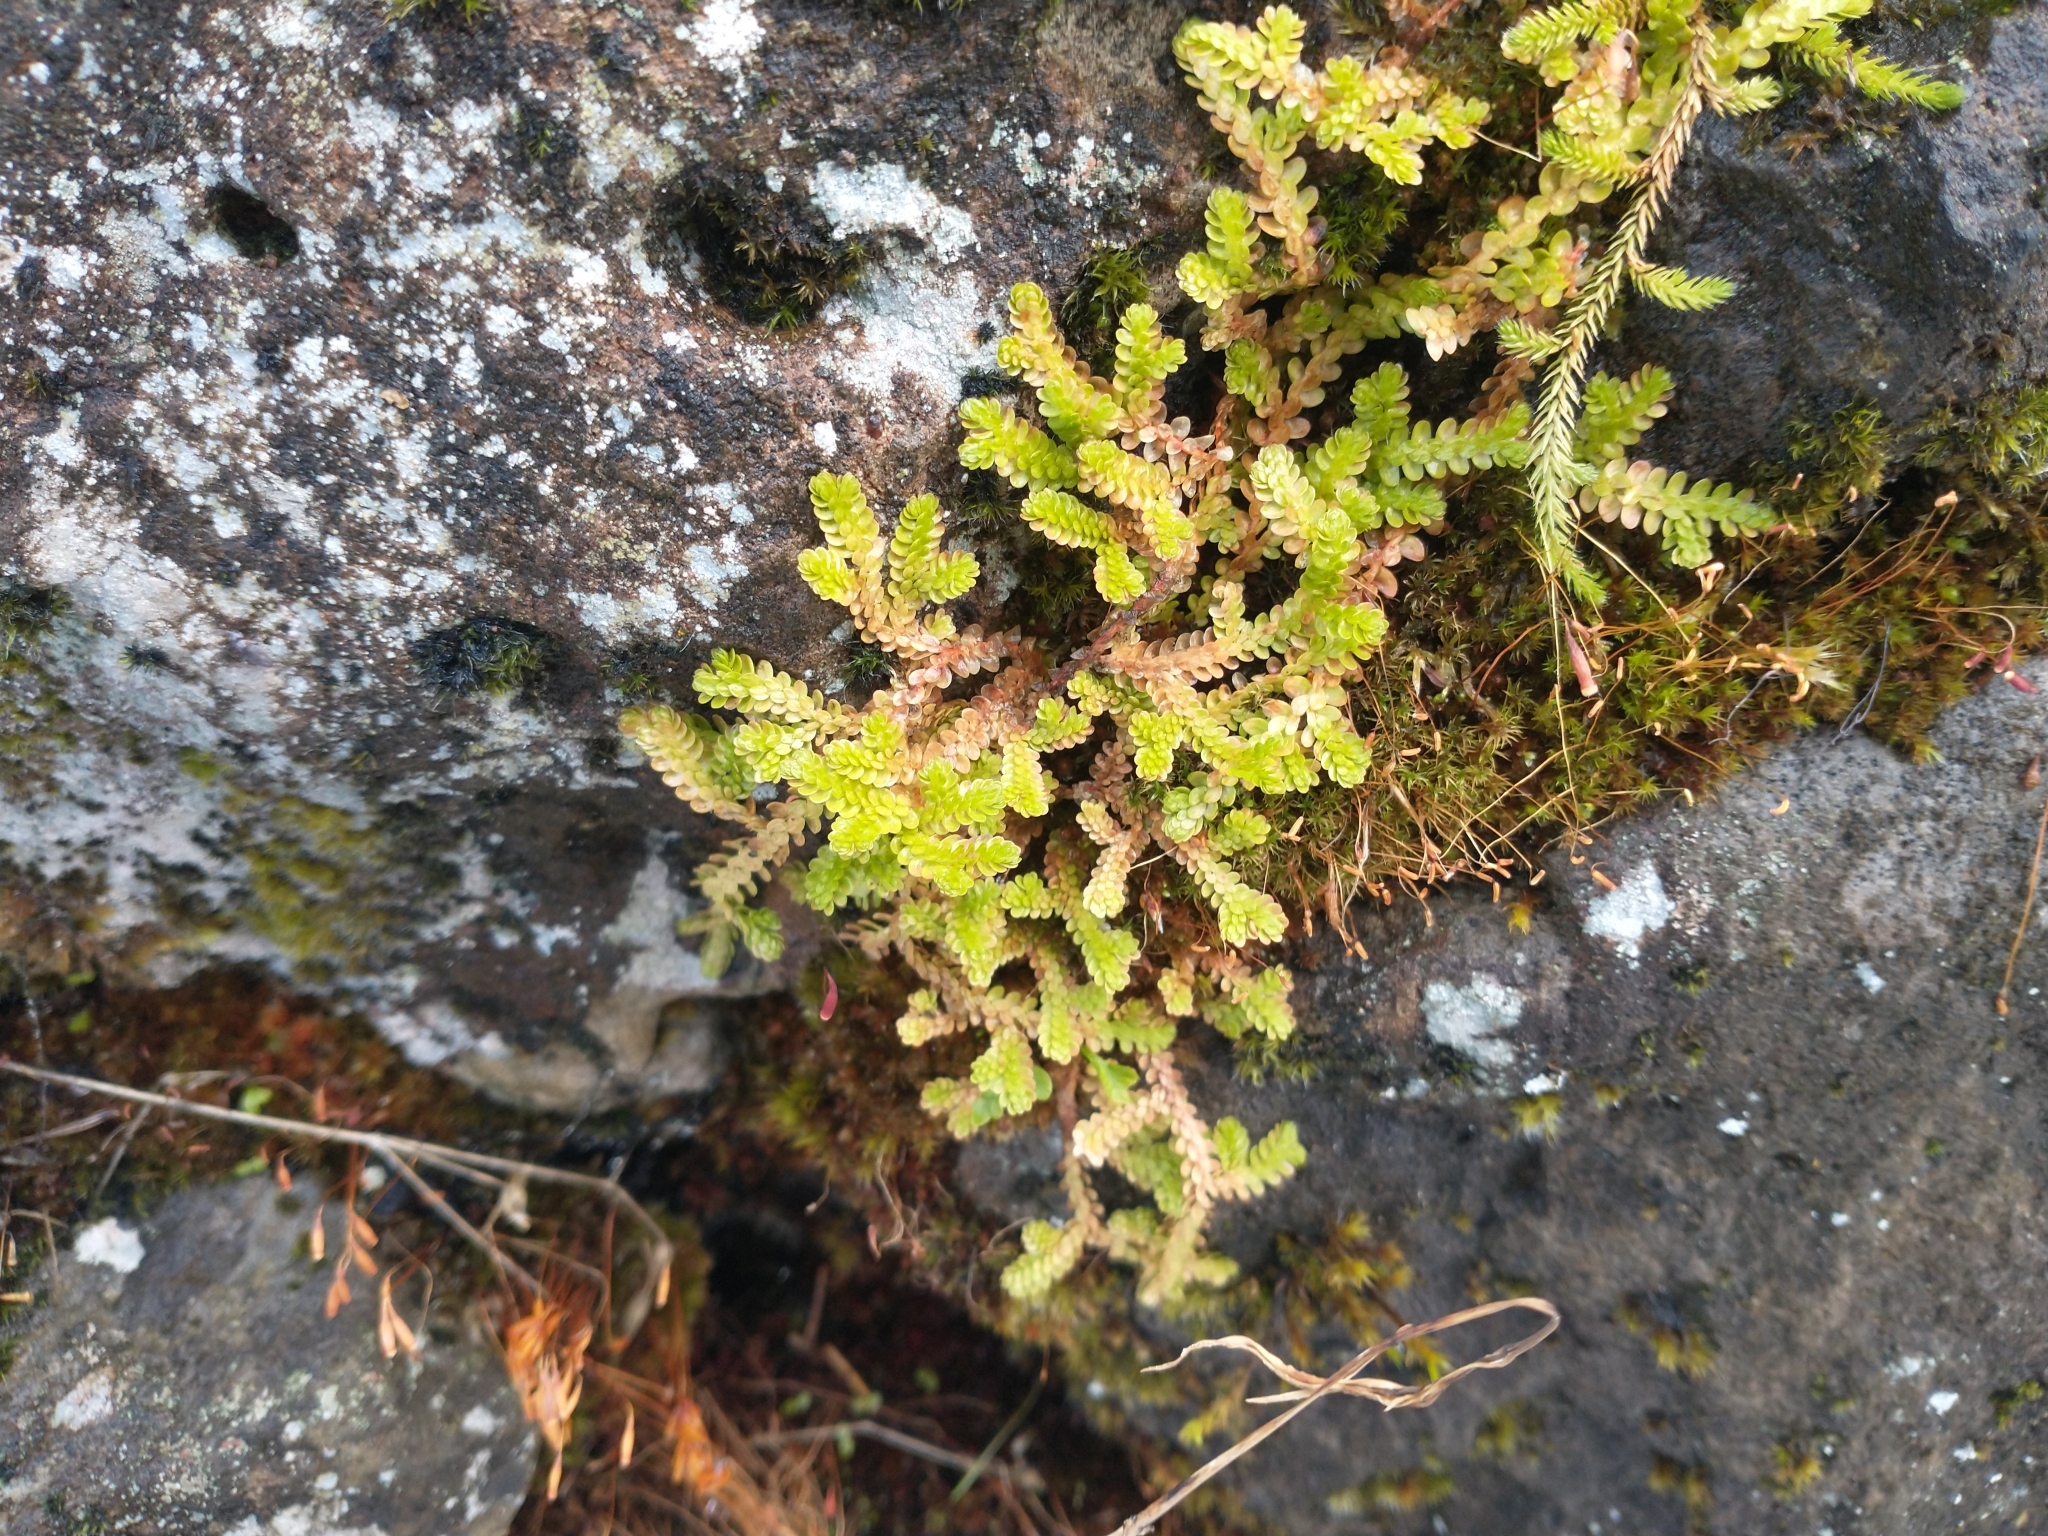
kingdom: Plantae
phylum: Tracheophyta
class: Lycopodiopsida
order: Selaginellales
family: Selaginellaceae
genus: Selaginella
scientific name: Selaginella douglasii
